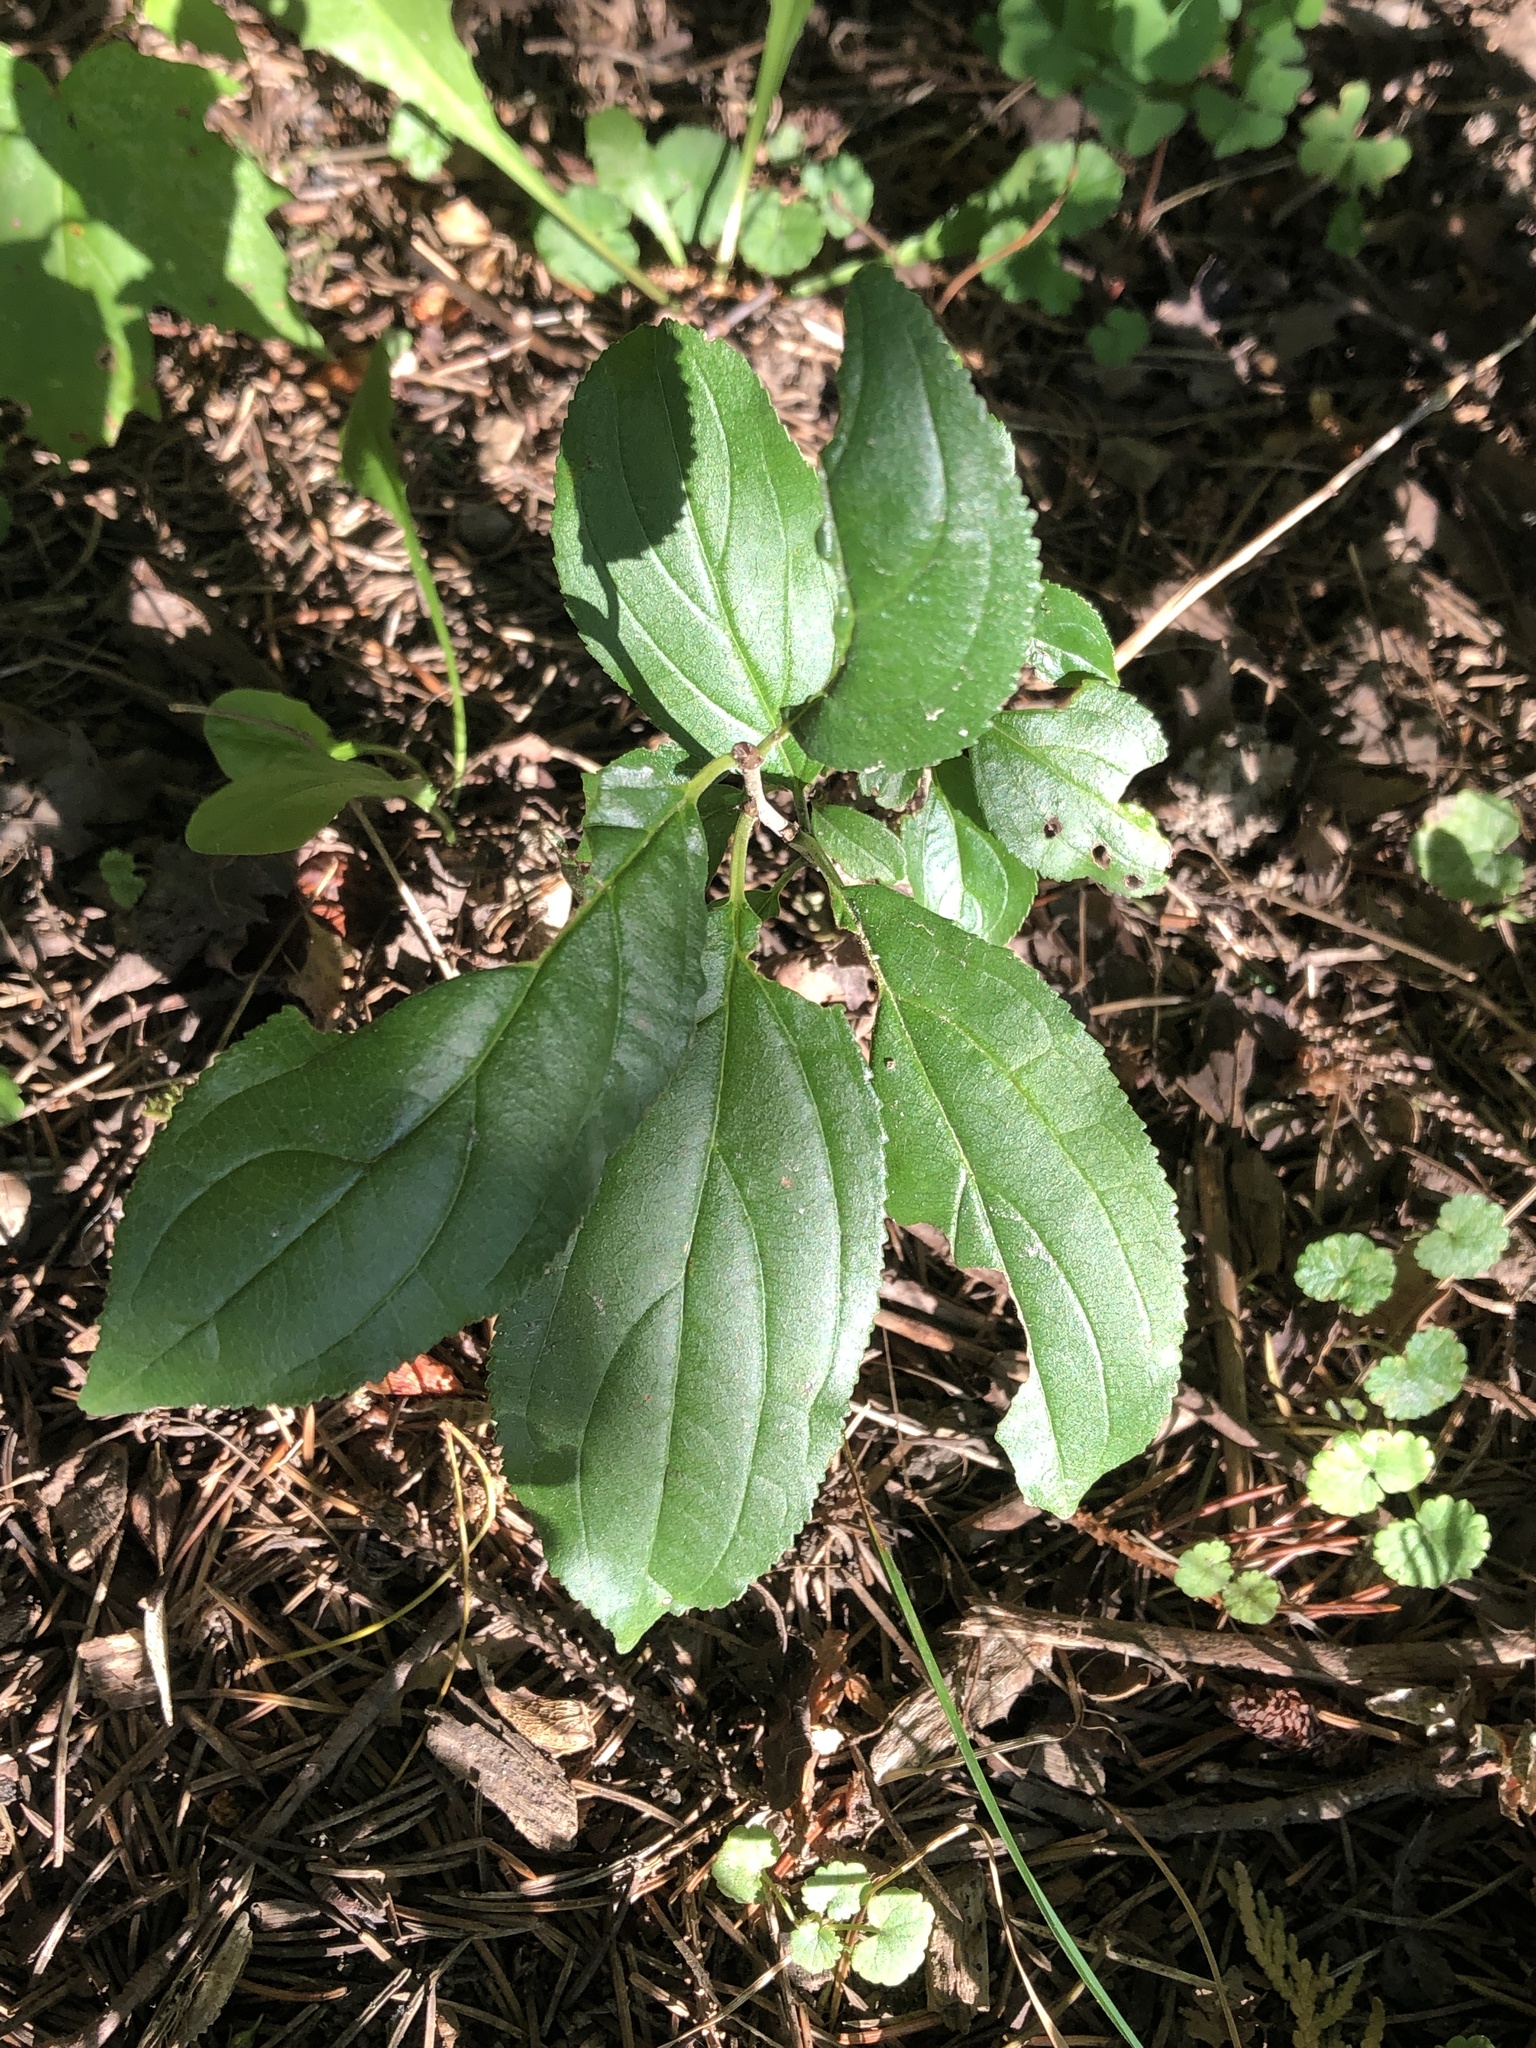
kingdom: Plantae
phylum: Tracheophyta
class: Magnoliopsida
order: Rosales
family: Rhamnaceae
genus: Rhamnus
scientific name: Rhamnus cathartica
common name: Common buckthorn
